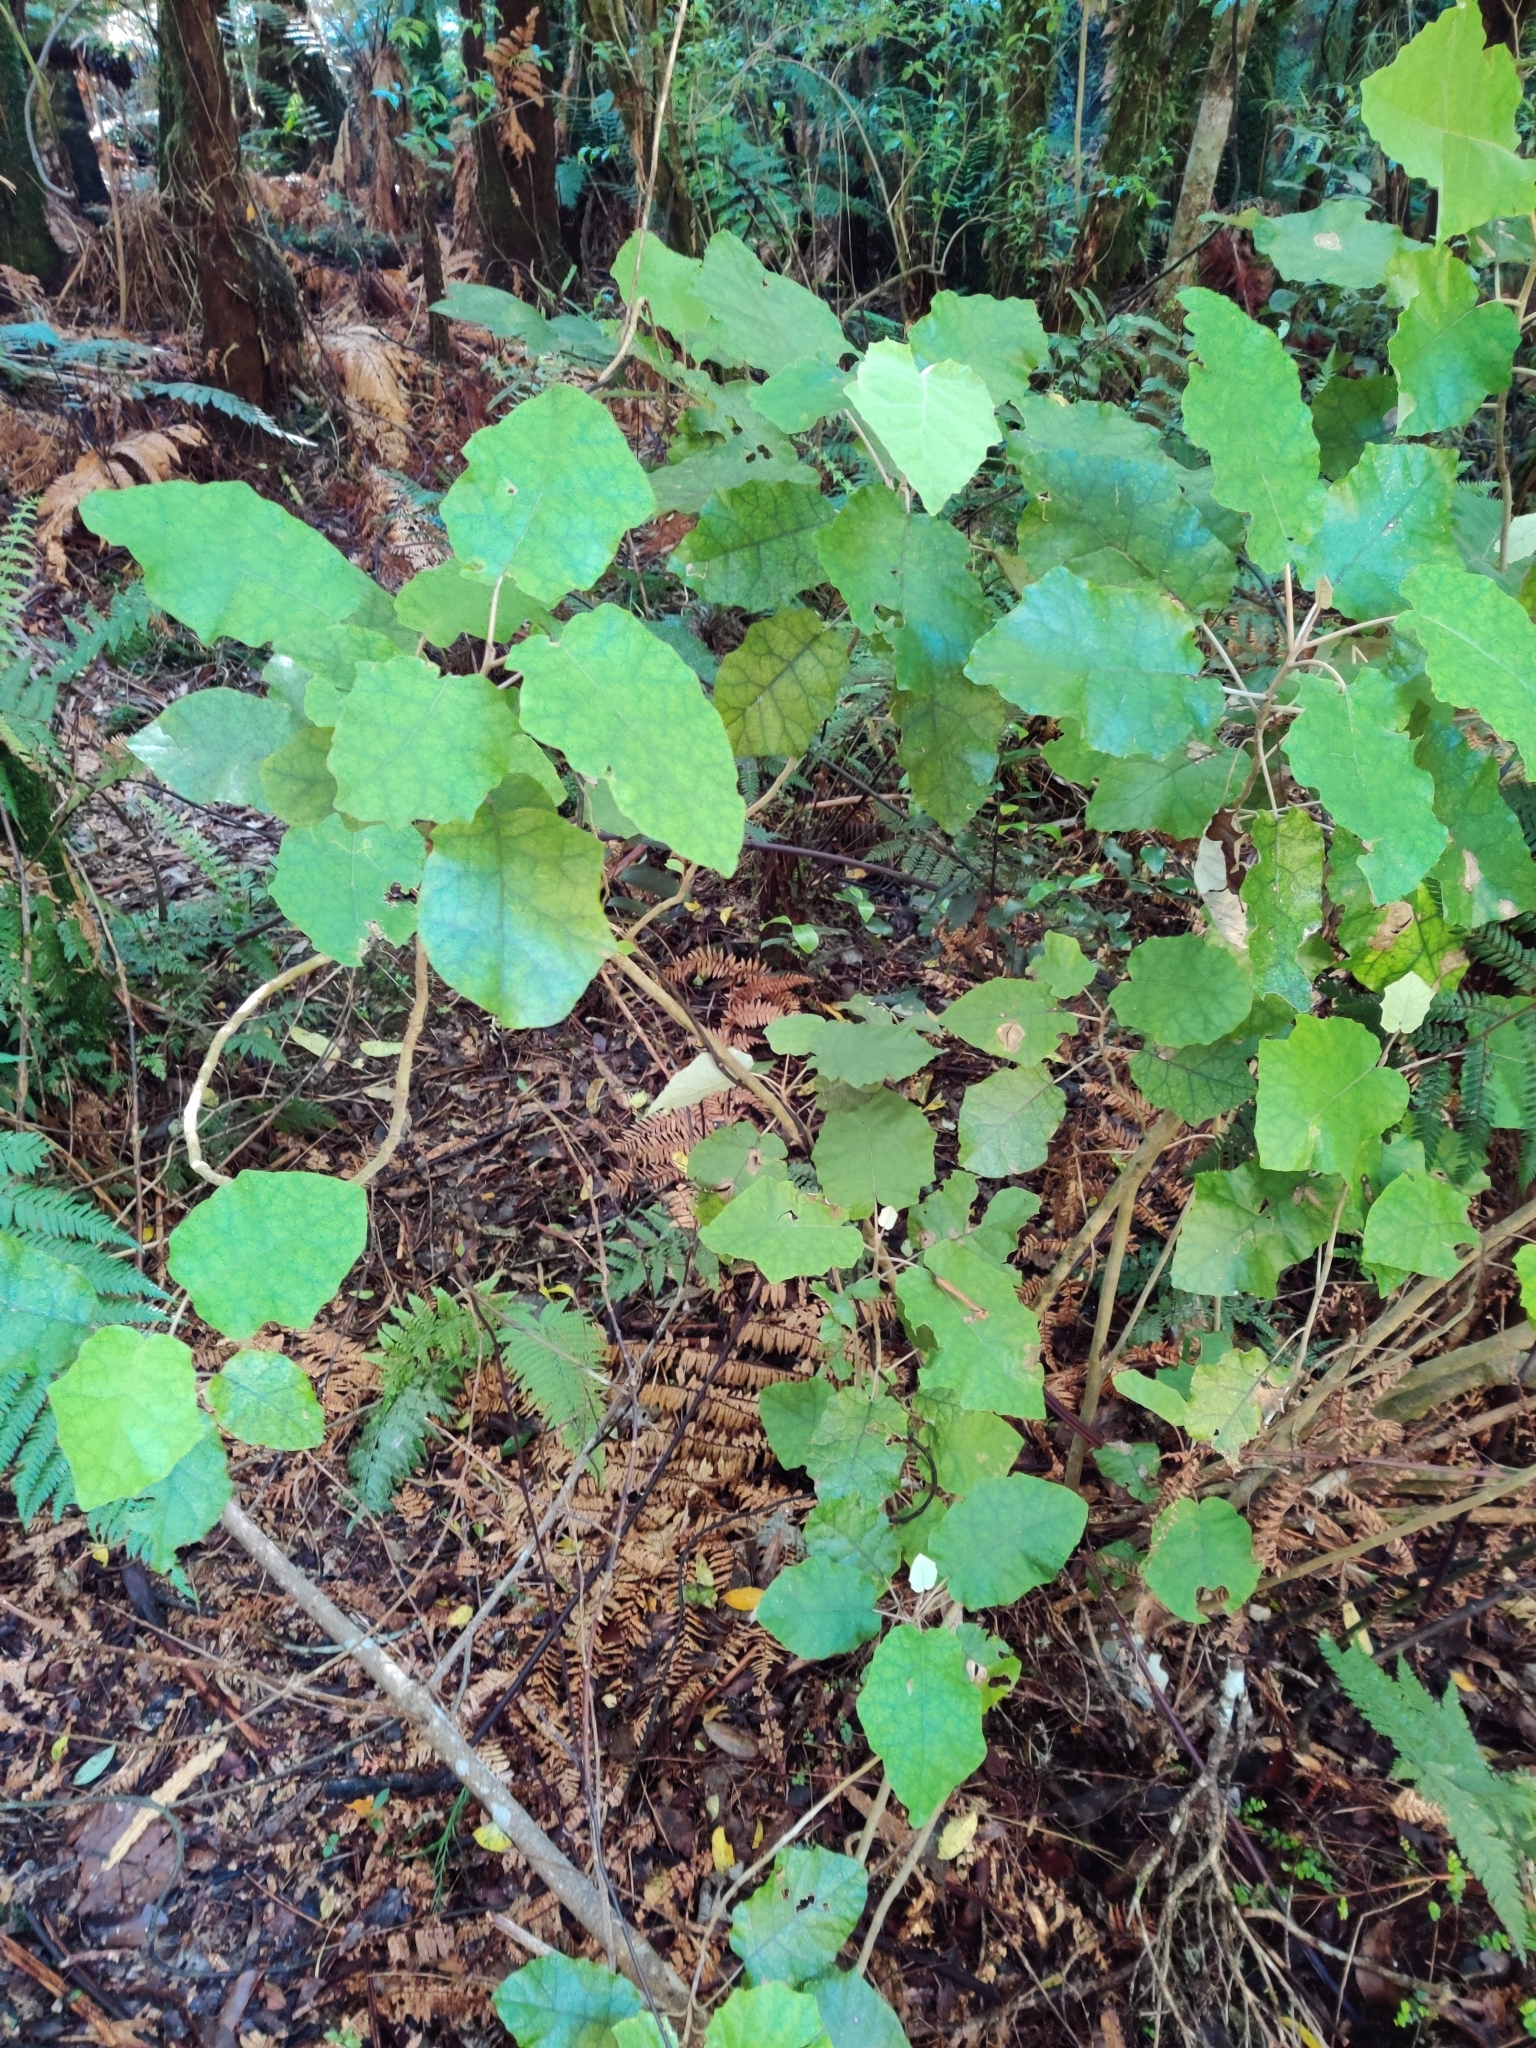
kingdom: Plantae
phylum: Tracheophyta
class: Magnoliopsida
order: Asterales
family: Asteraceae
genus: Brachyglottis
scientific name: Brachyglottis repanda
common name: Hedge ragwort
